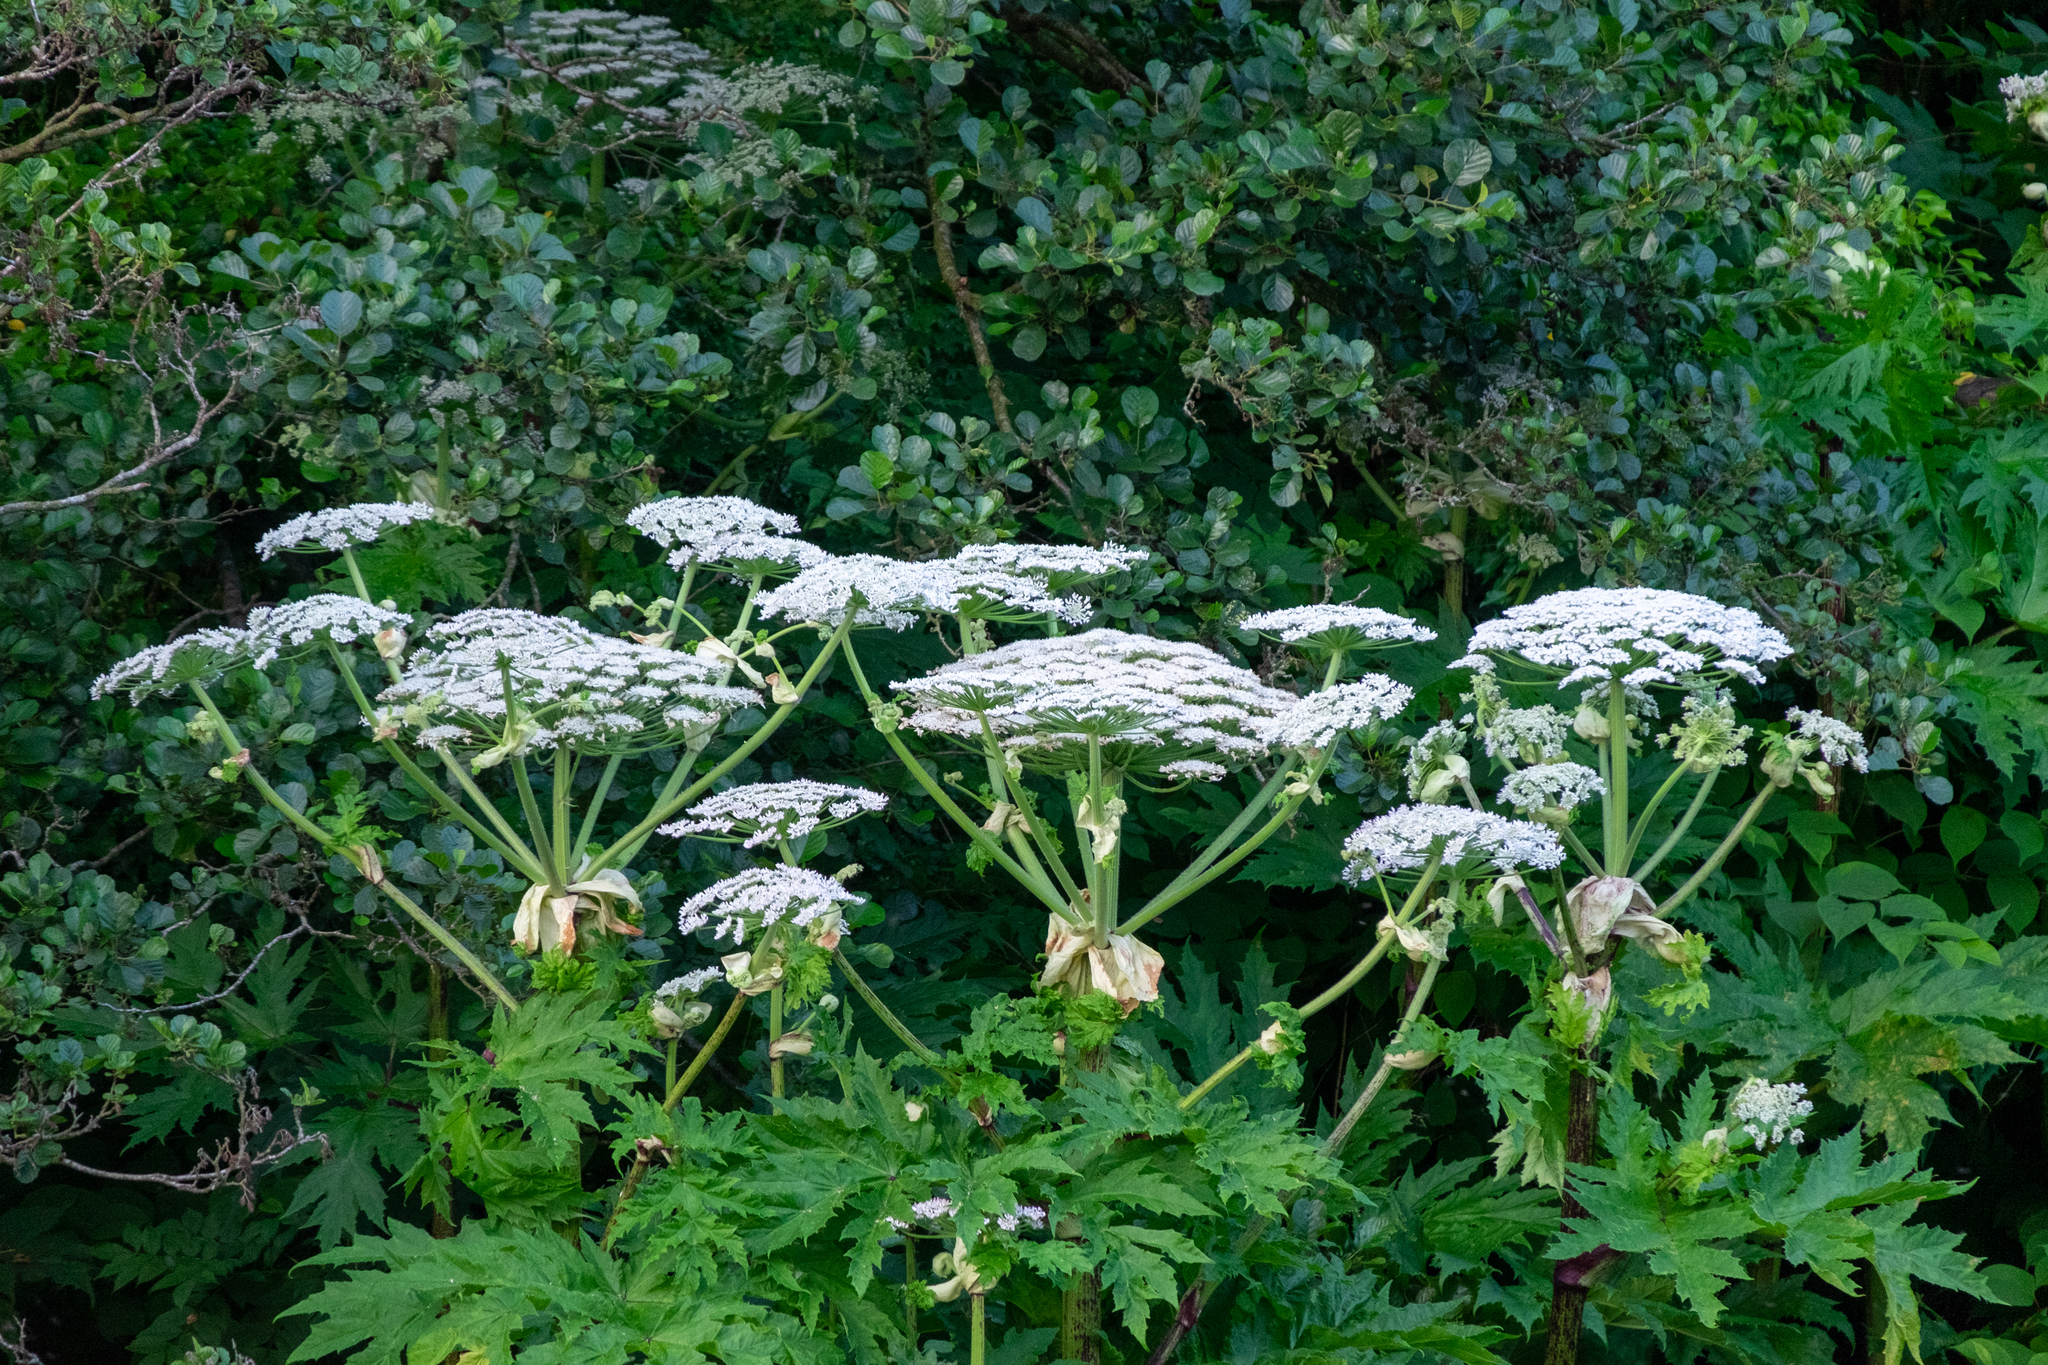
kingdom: Plantae
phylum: Tracheophyta
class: Magnoliopsida
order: Apiales
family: Apiaceae
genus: Heracleum
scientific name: Heracleum mantegazzianum
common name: Giant hogweed
